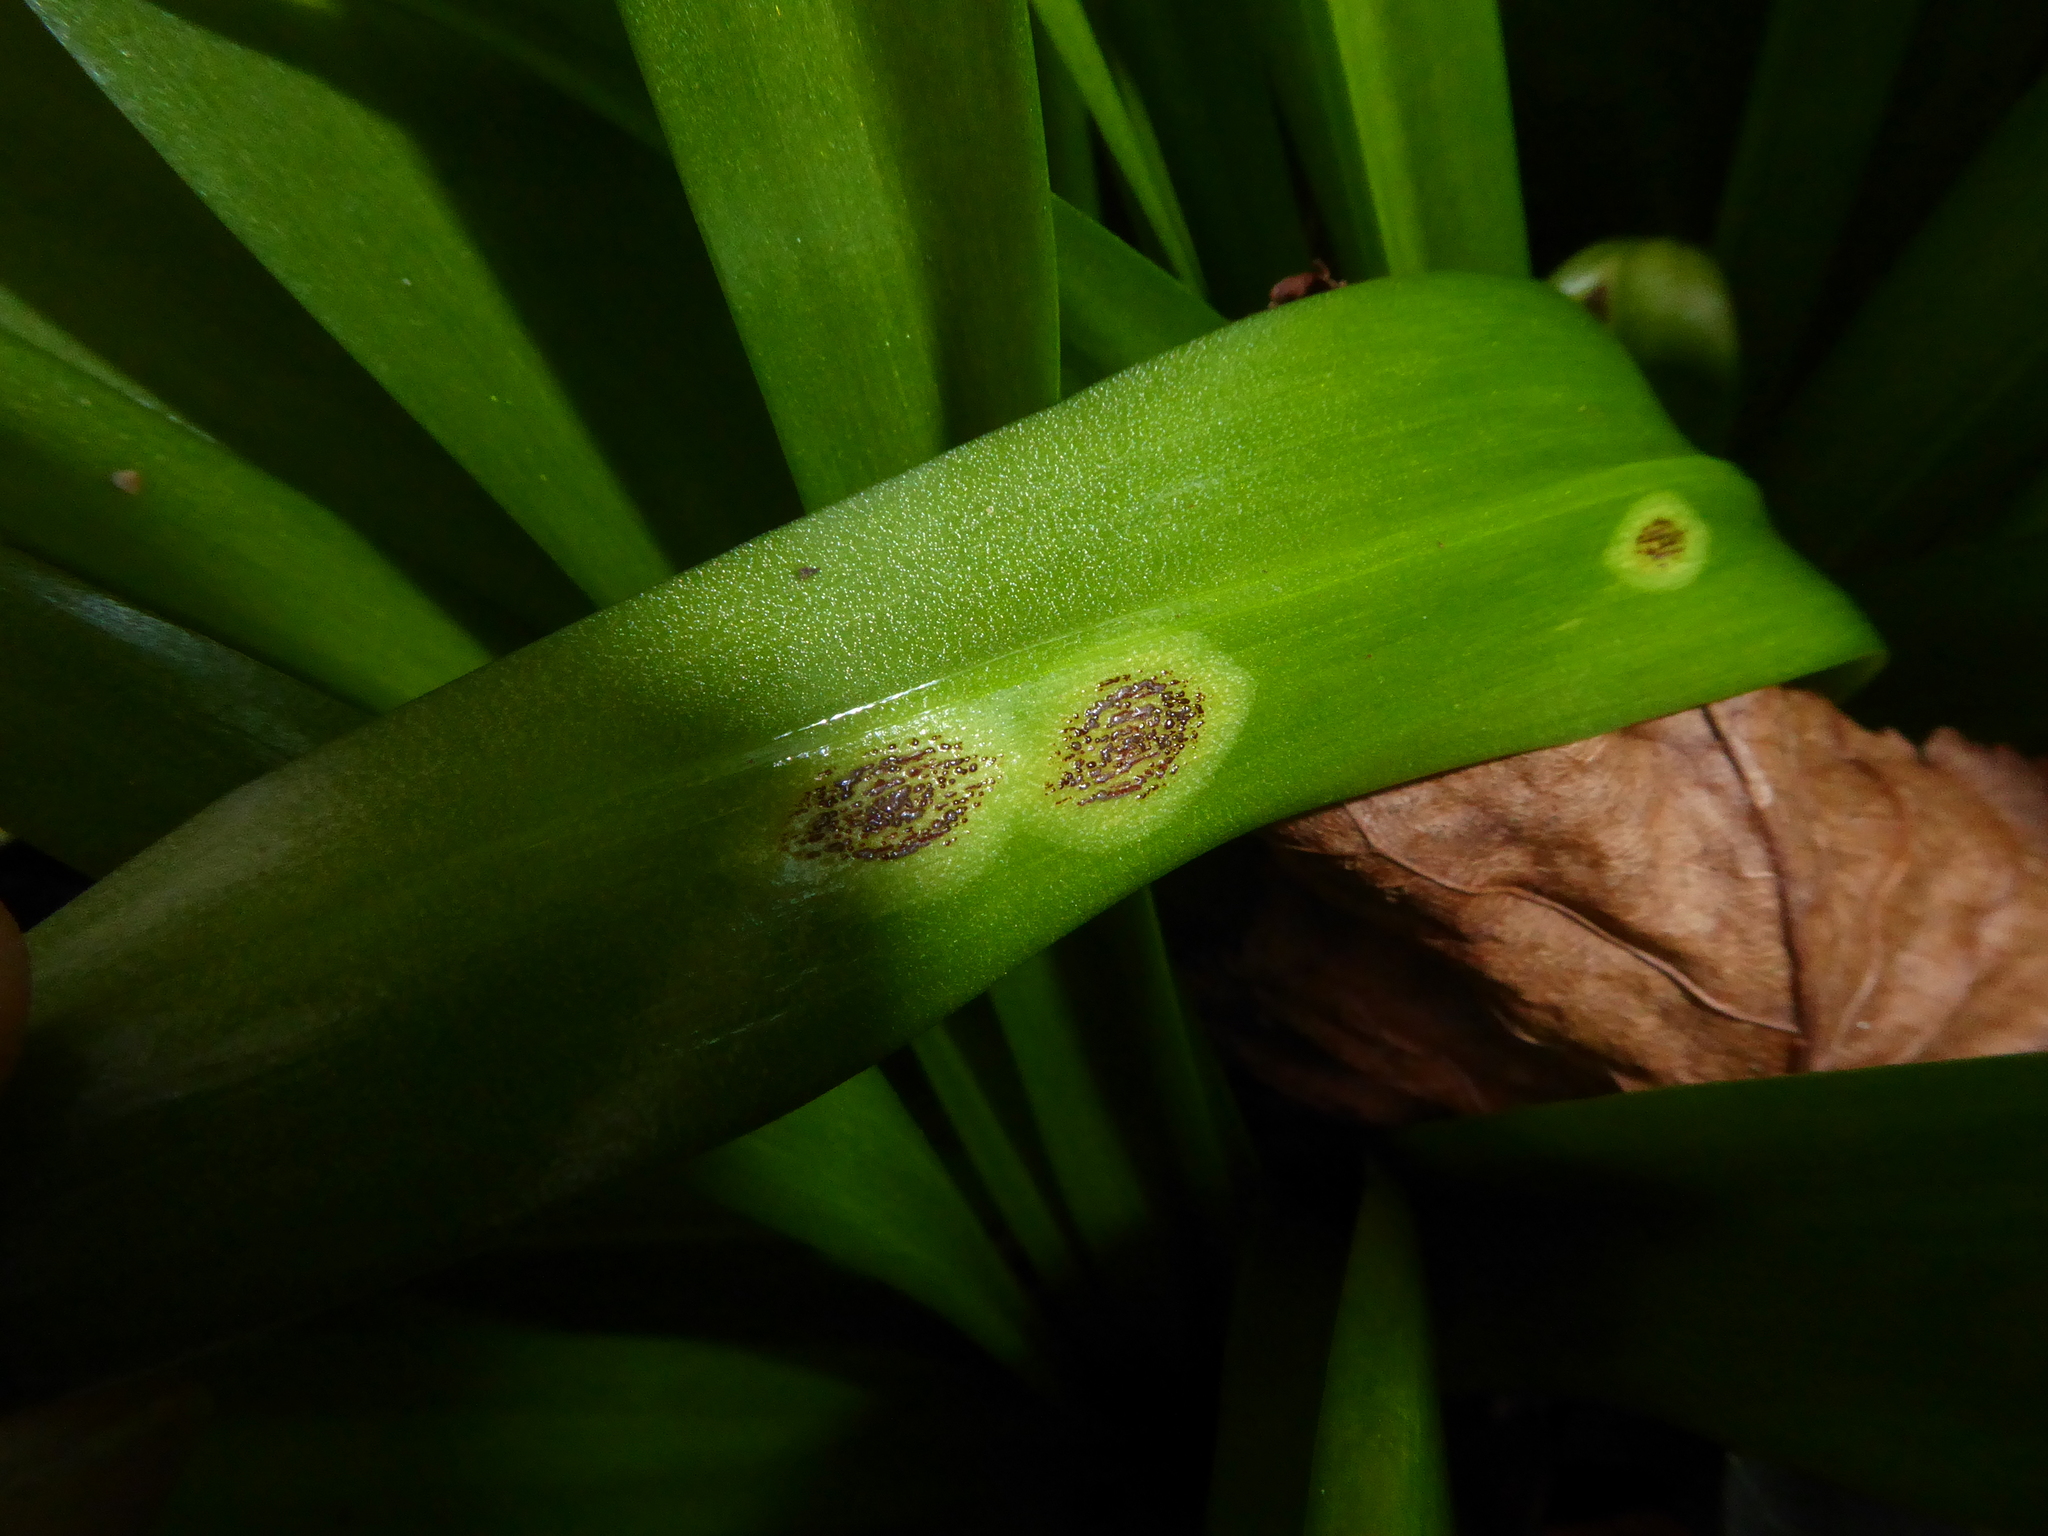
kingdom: Fungi
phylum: Basidiomycota
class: Pucciniomycetes
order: Pucciniales
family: Pucciniaceae
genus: Uromyces
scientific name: Uromyces hyacinthi
